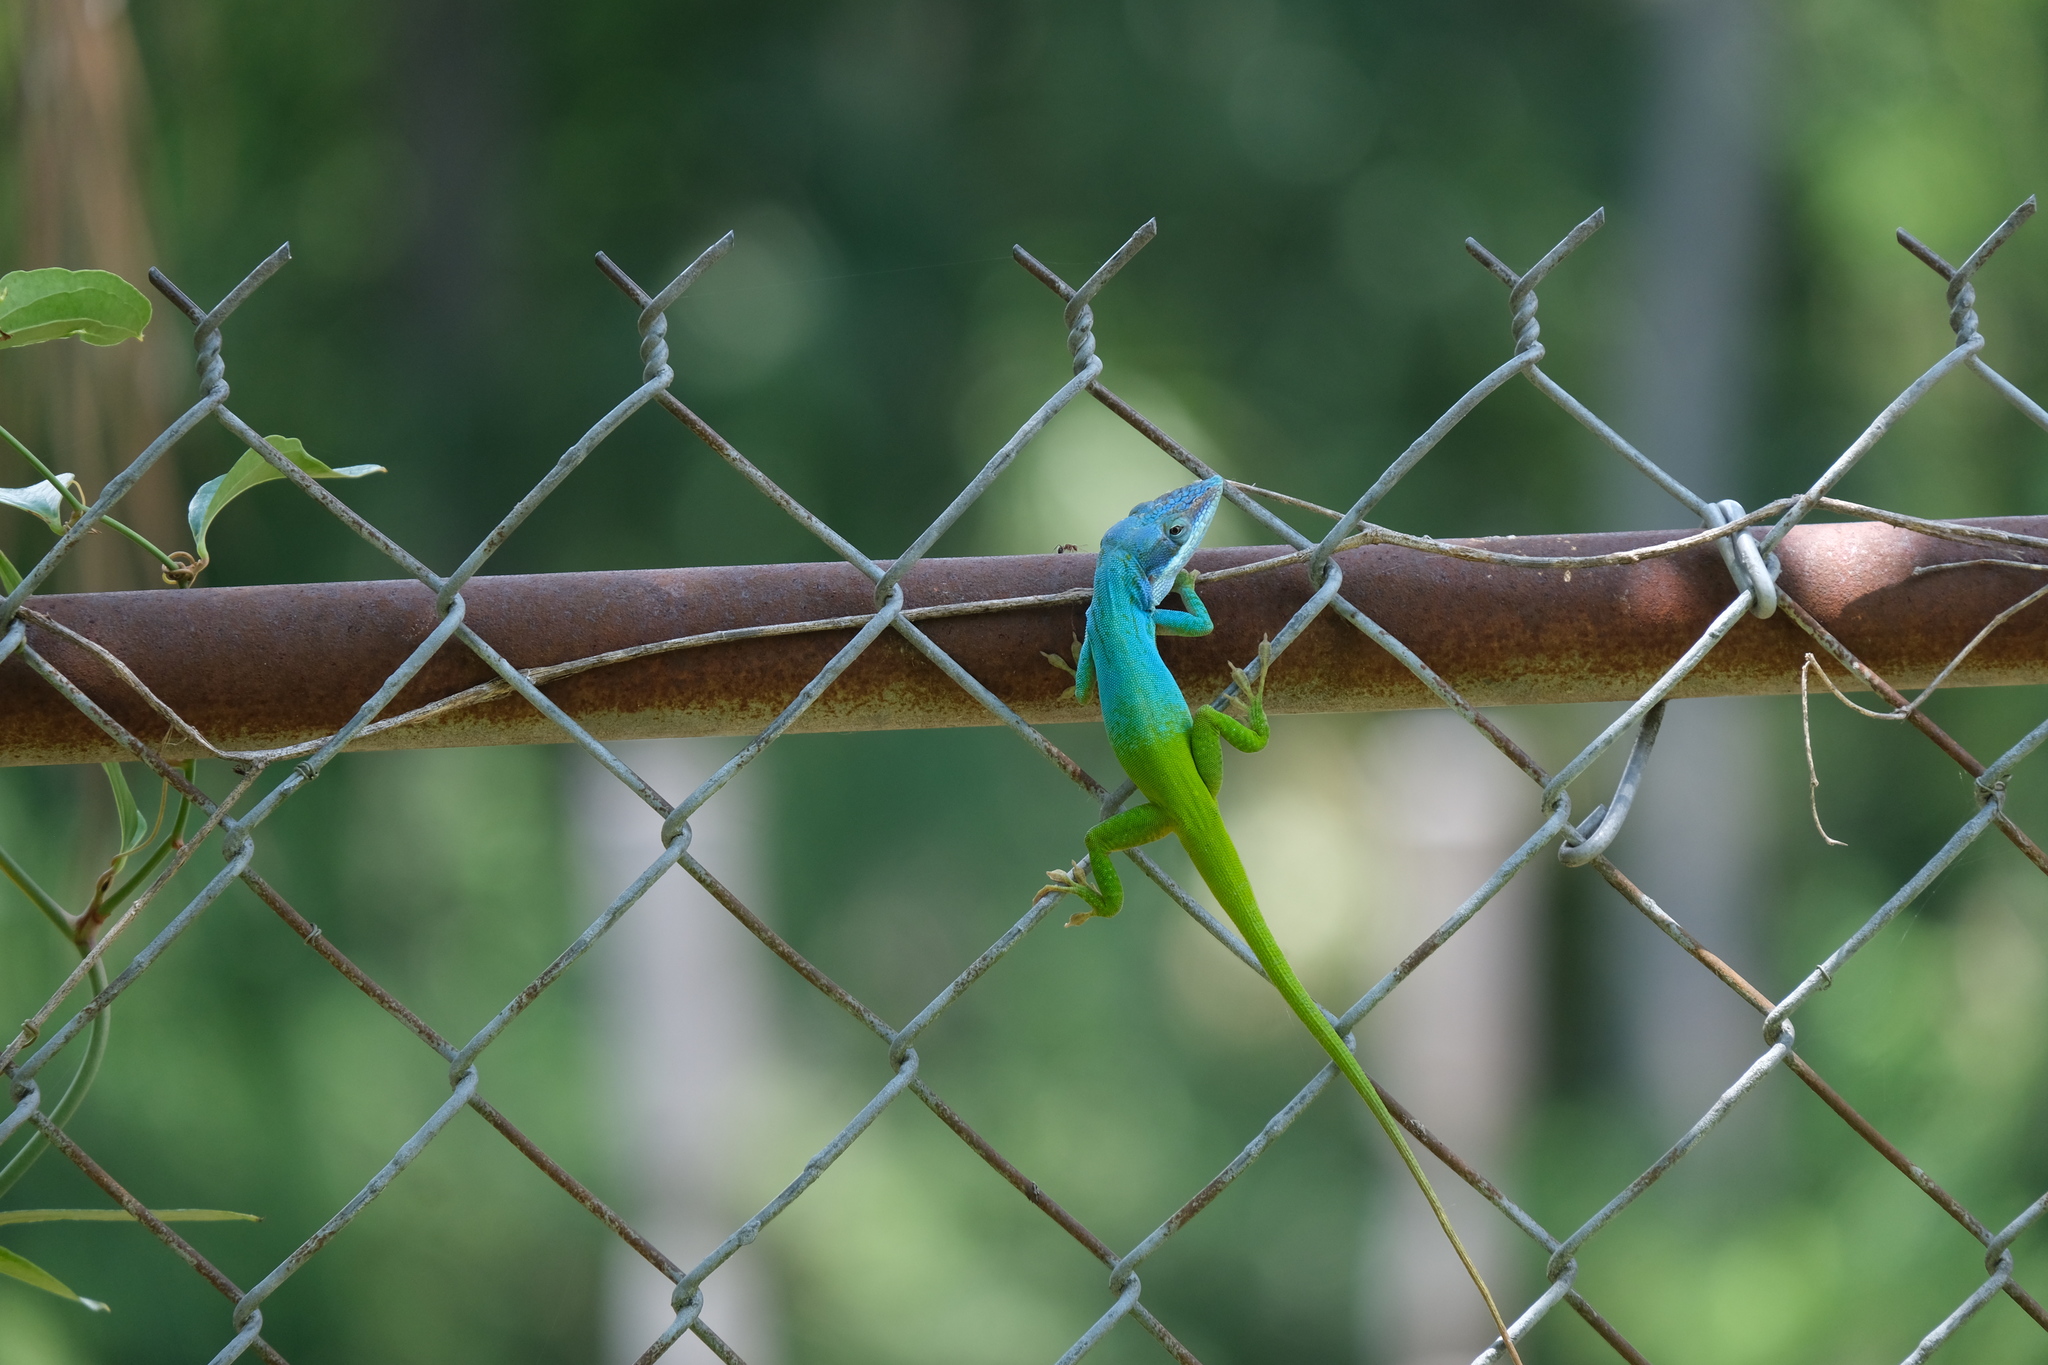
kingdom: Animalia
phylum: Chordata
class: Squamata
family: Dactyloidae
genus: Anolis
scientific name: Anolis allisoni
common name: Allison's anole
